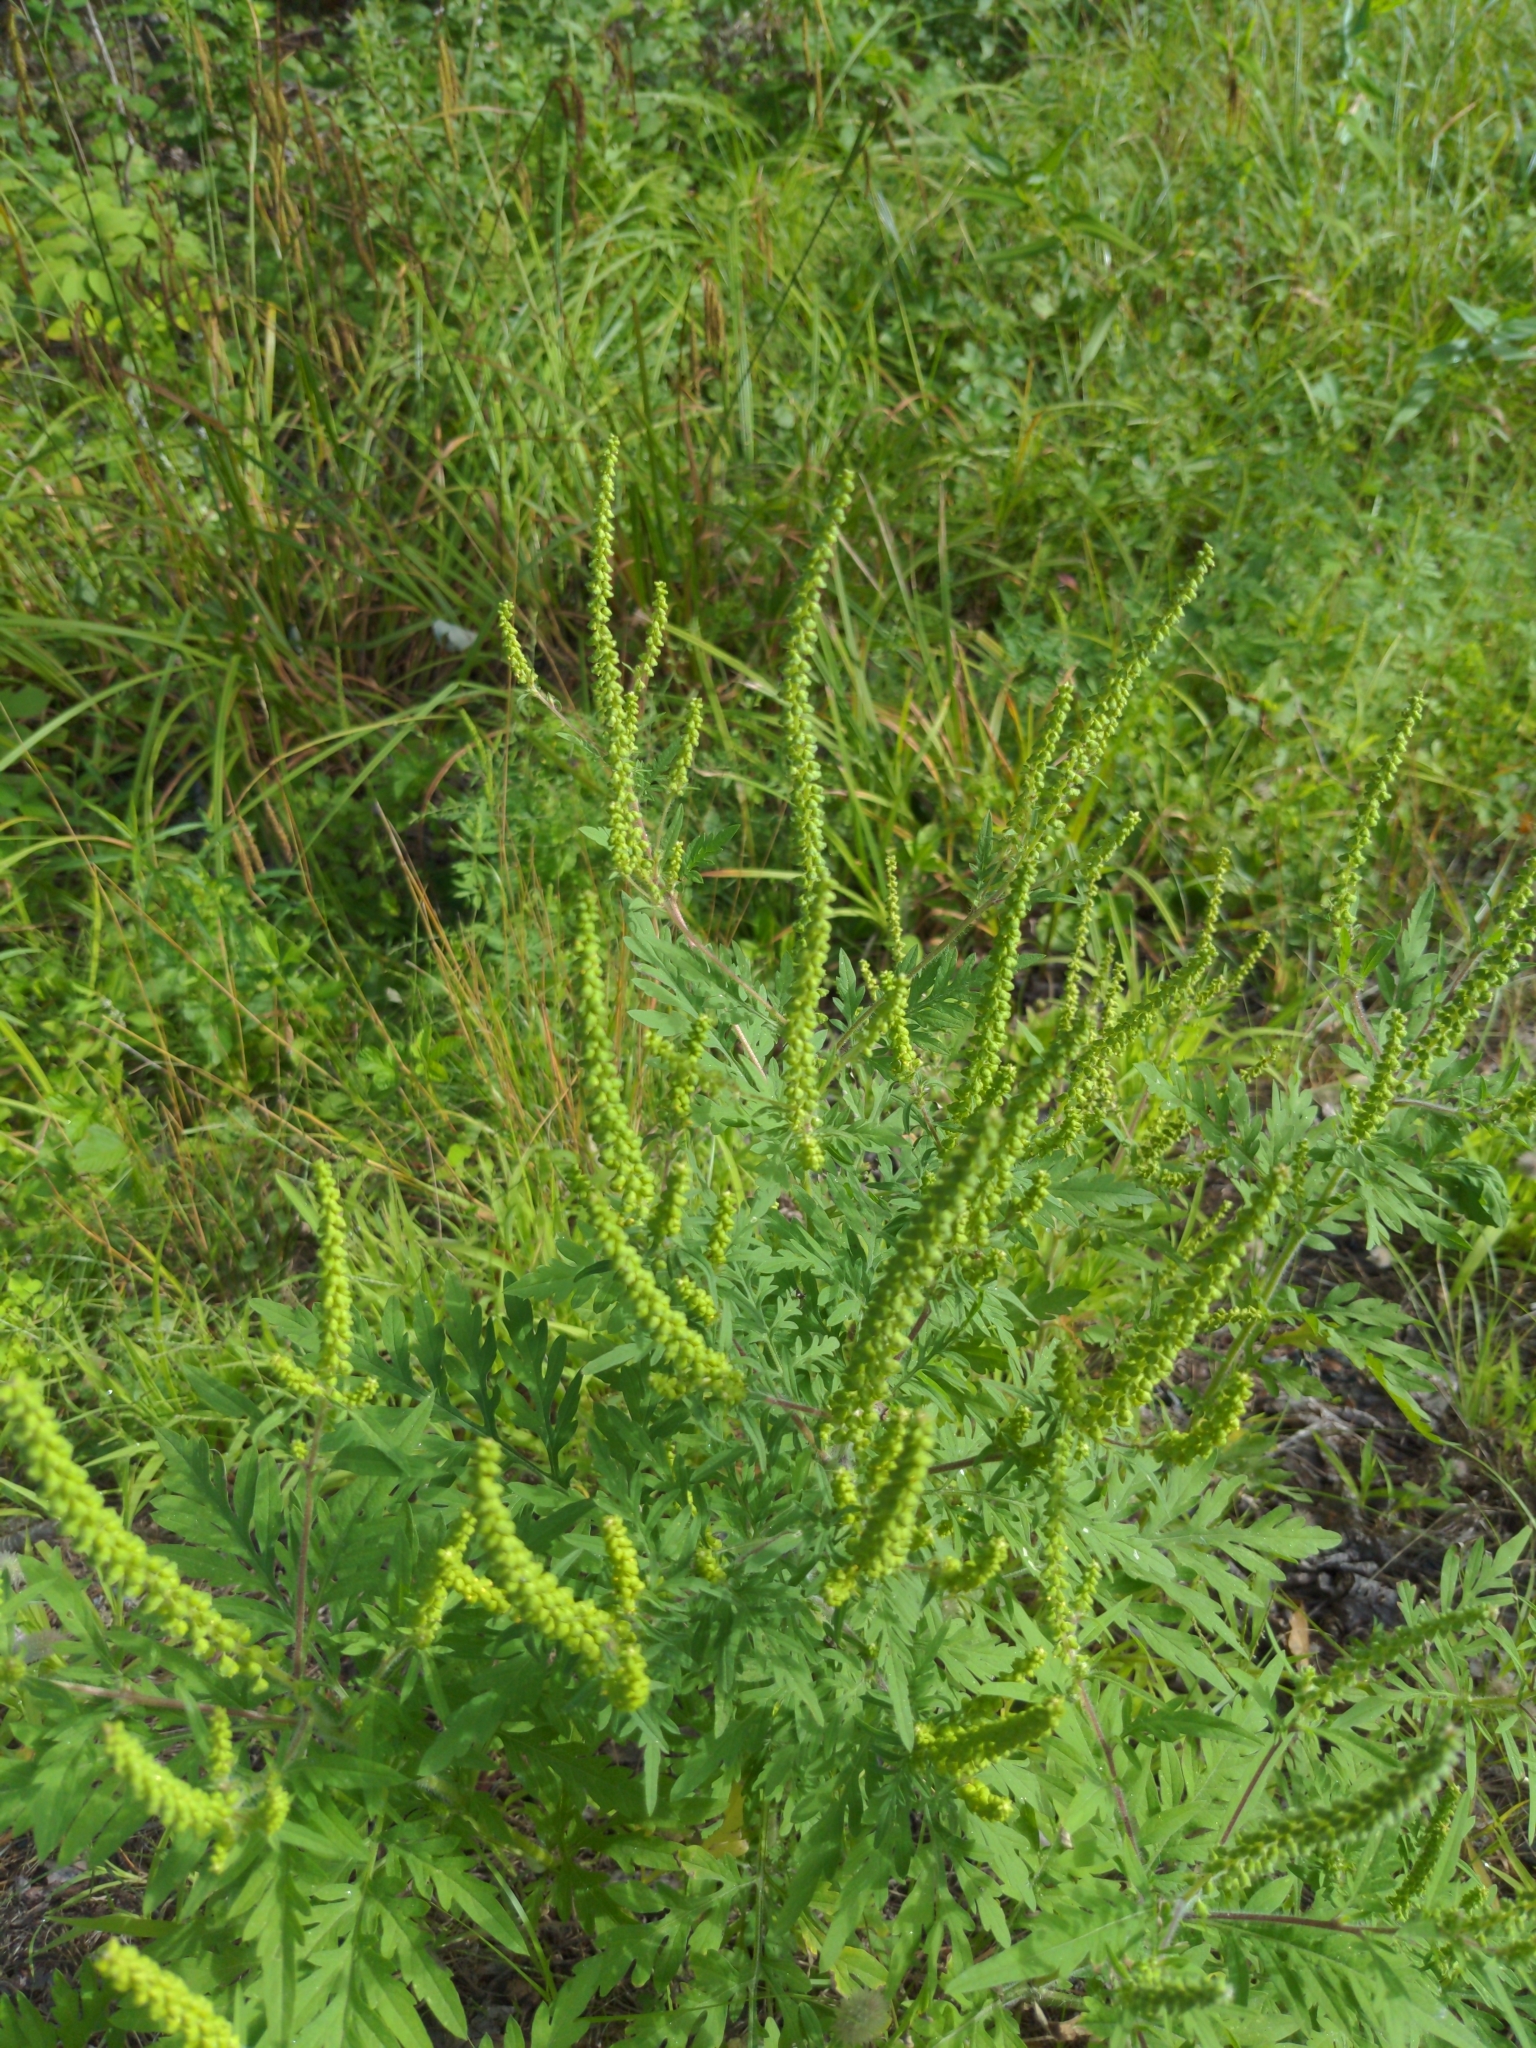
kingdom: Plantae
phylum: Tracheophyta
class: Magnoliopsida
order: Asterales
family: Asteraceae
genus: Ambrosia
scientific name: Ambrosia artemisiifolia
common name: Annual ragweed
